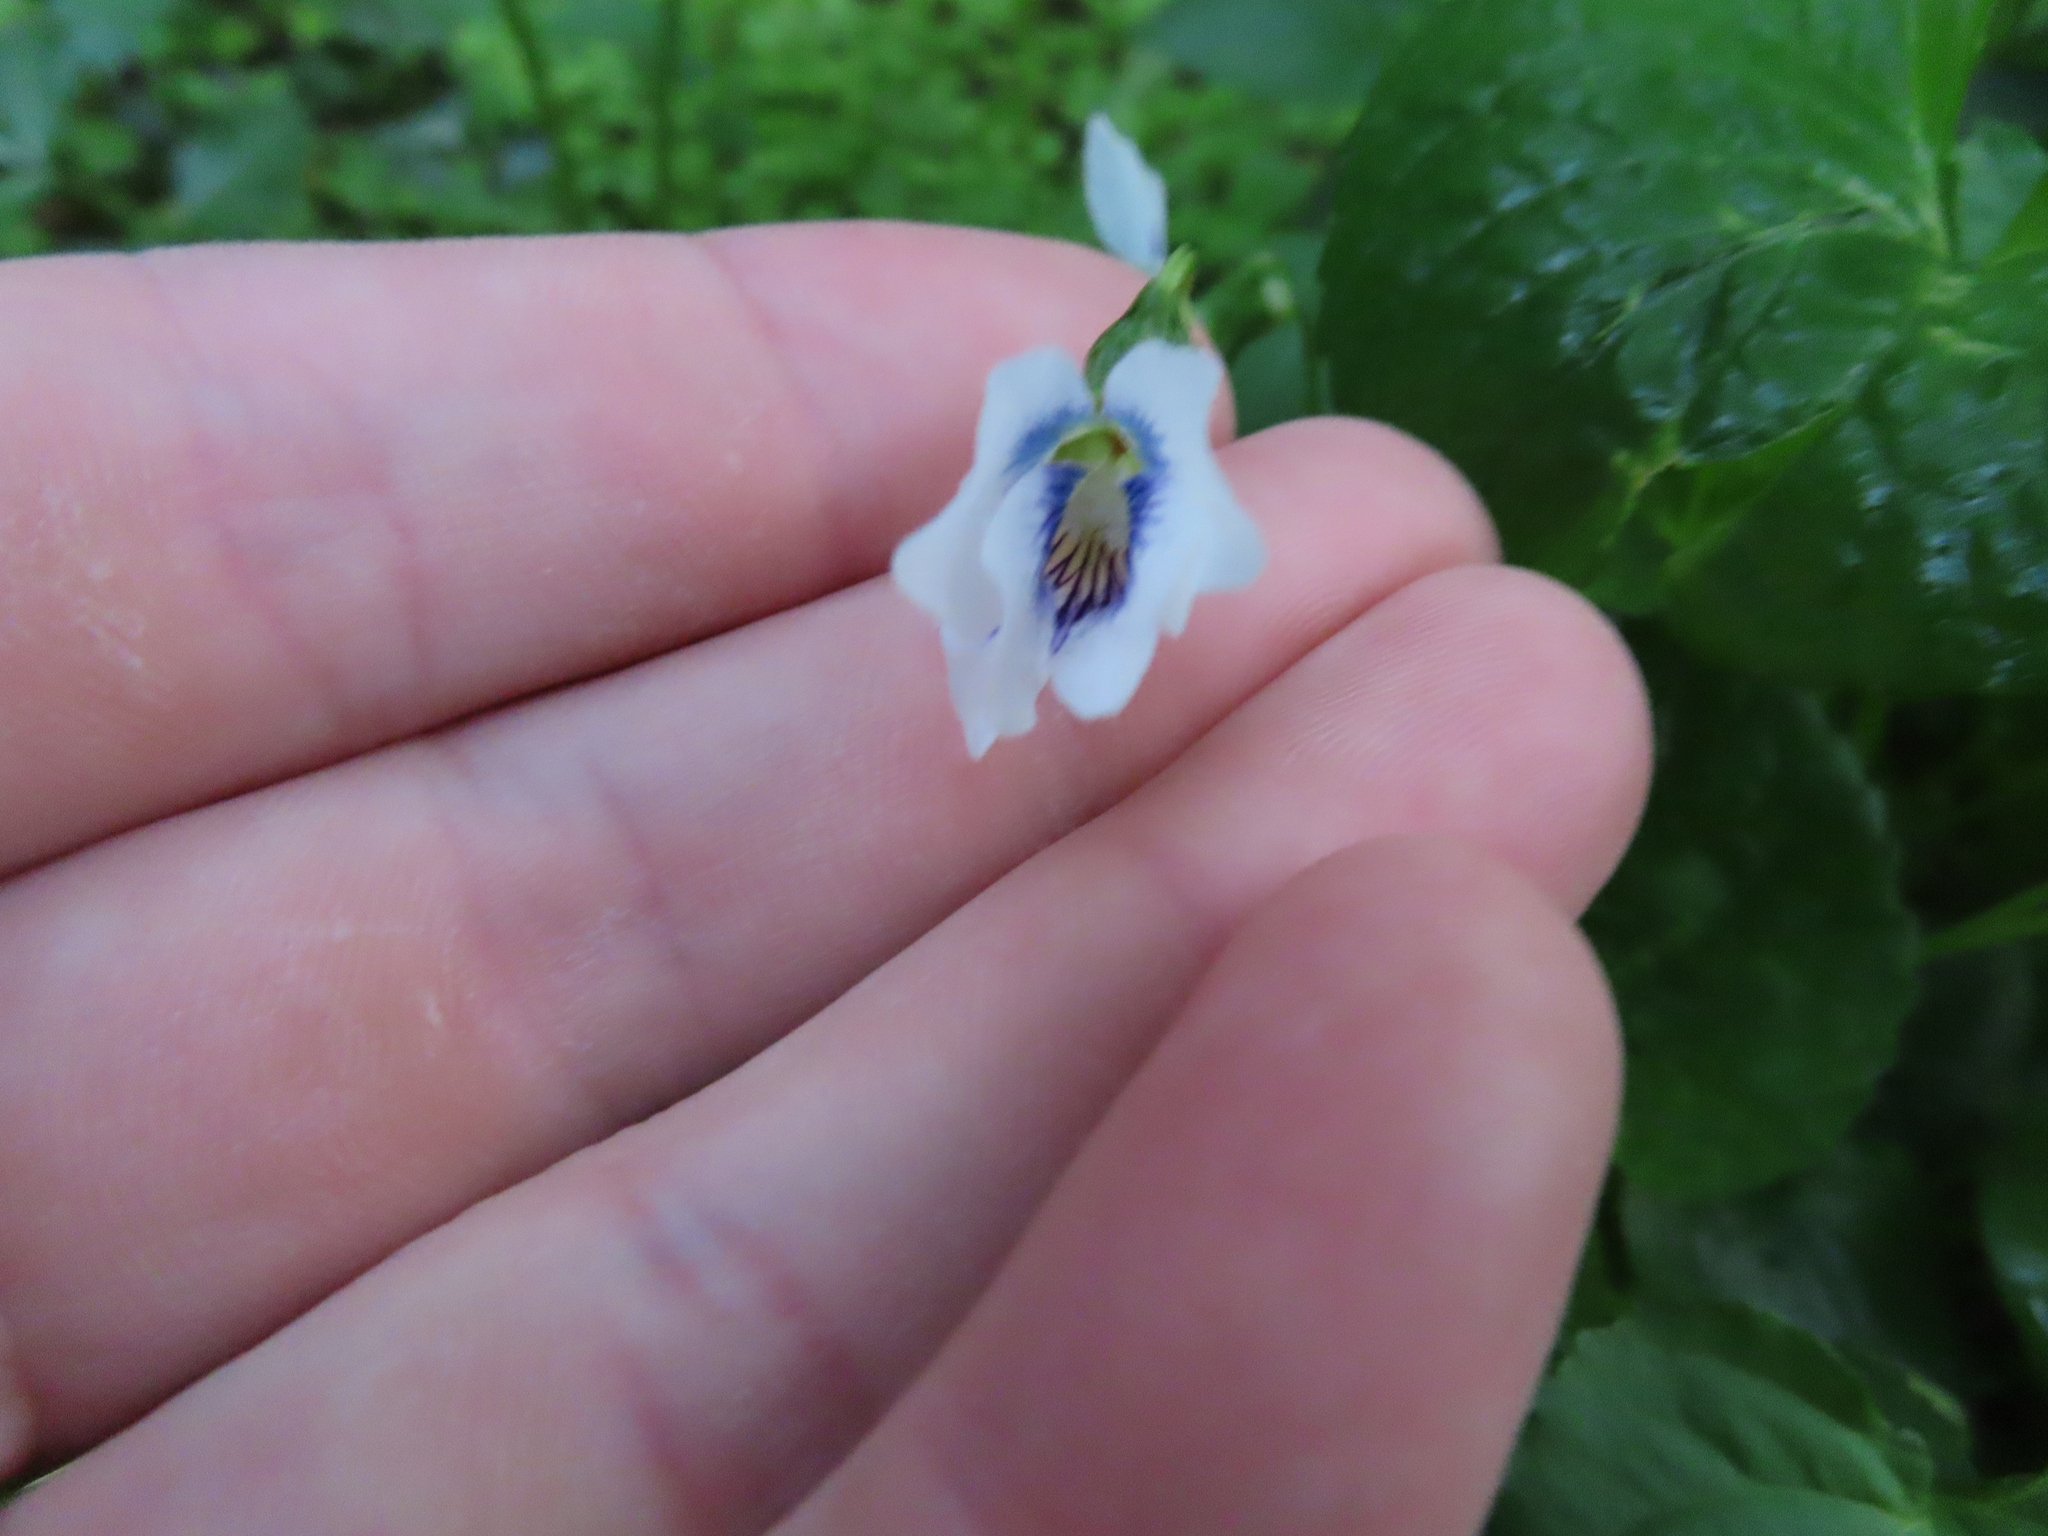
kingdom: Plantae
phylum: Tracheophyta
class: Magnoliopsida
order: Malpighiales
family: Violaceae
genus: Viola
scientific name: Viola sororia
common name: Dooryard violet
